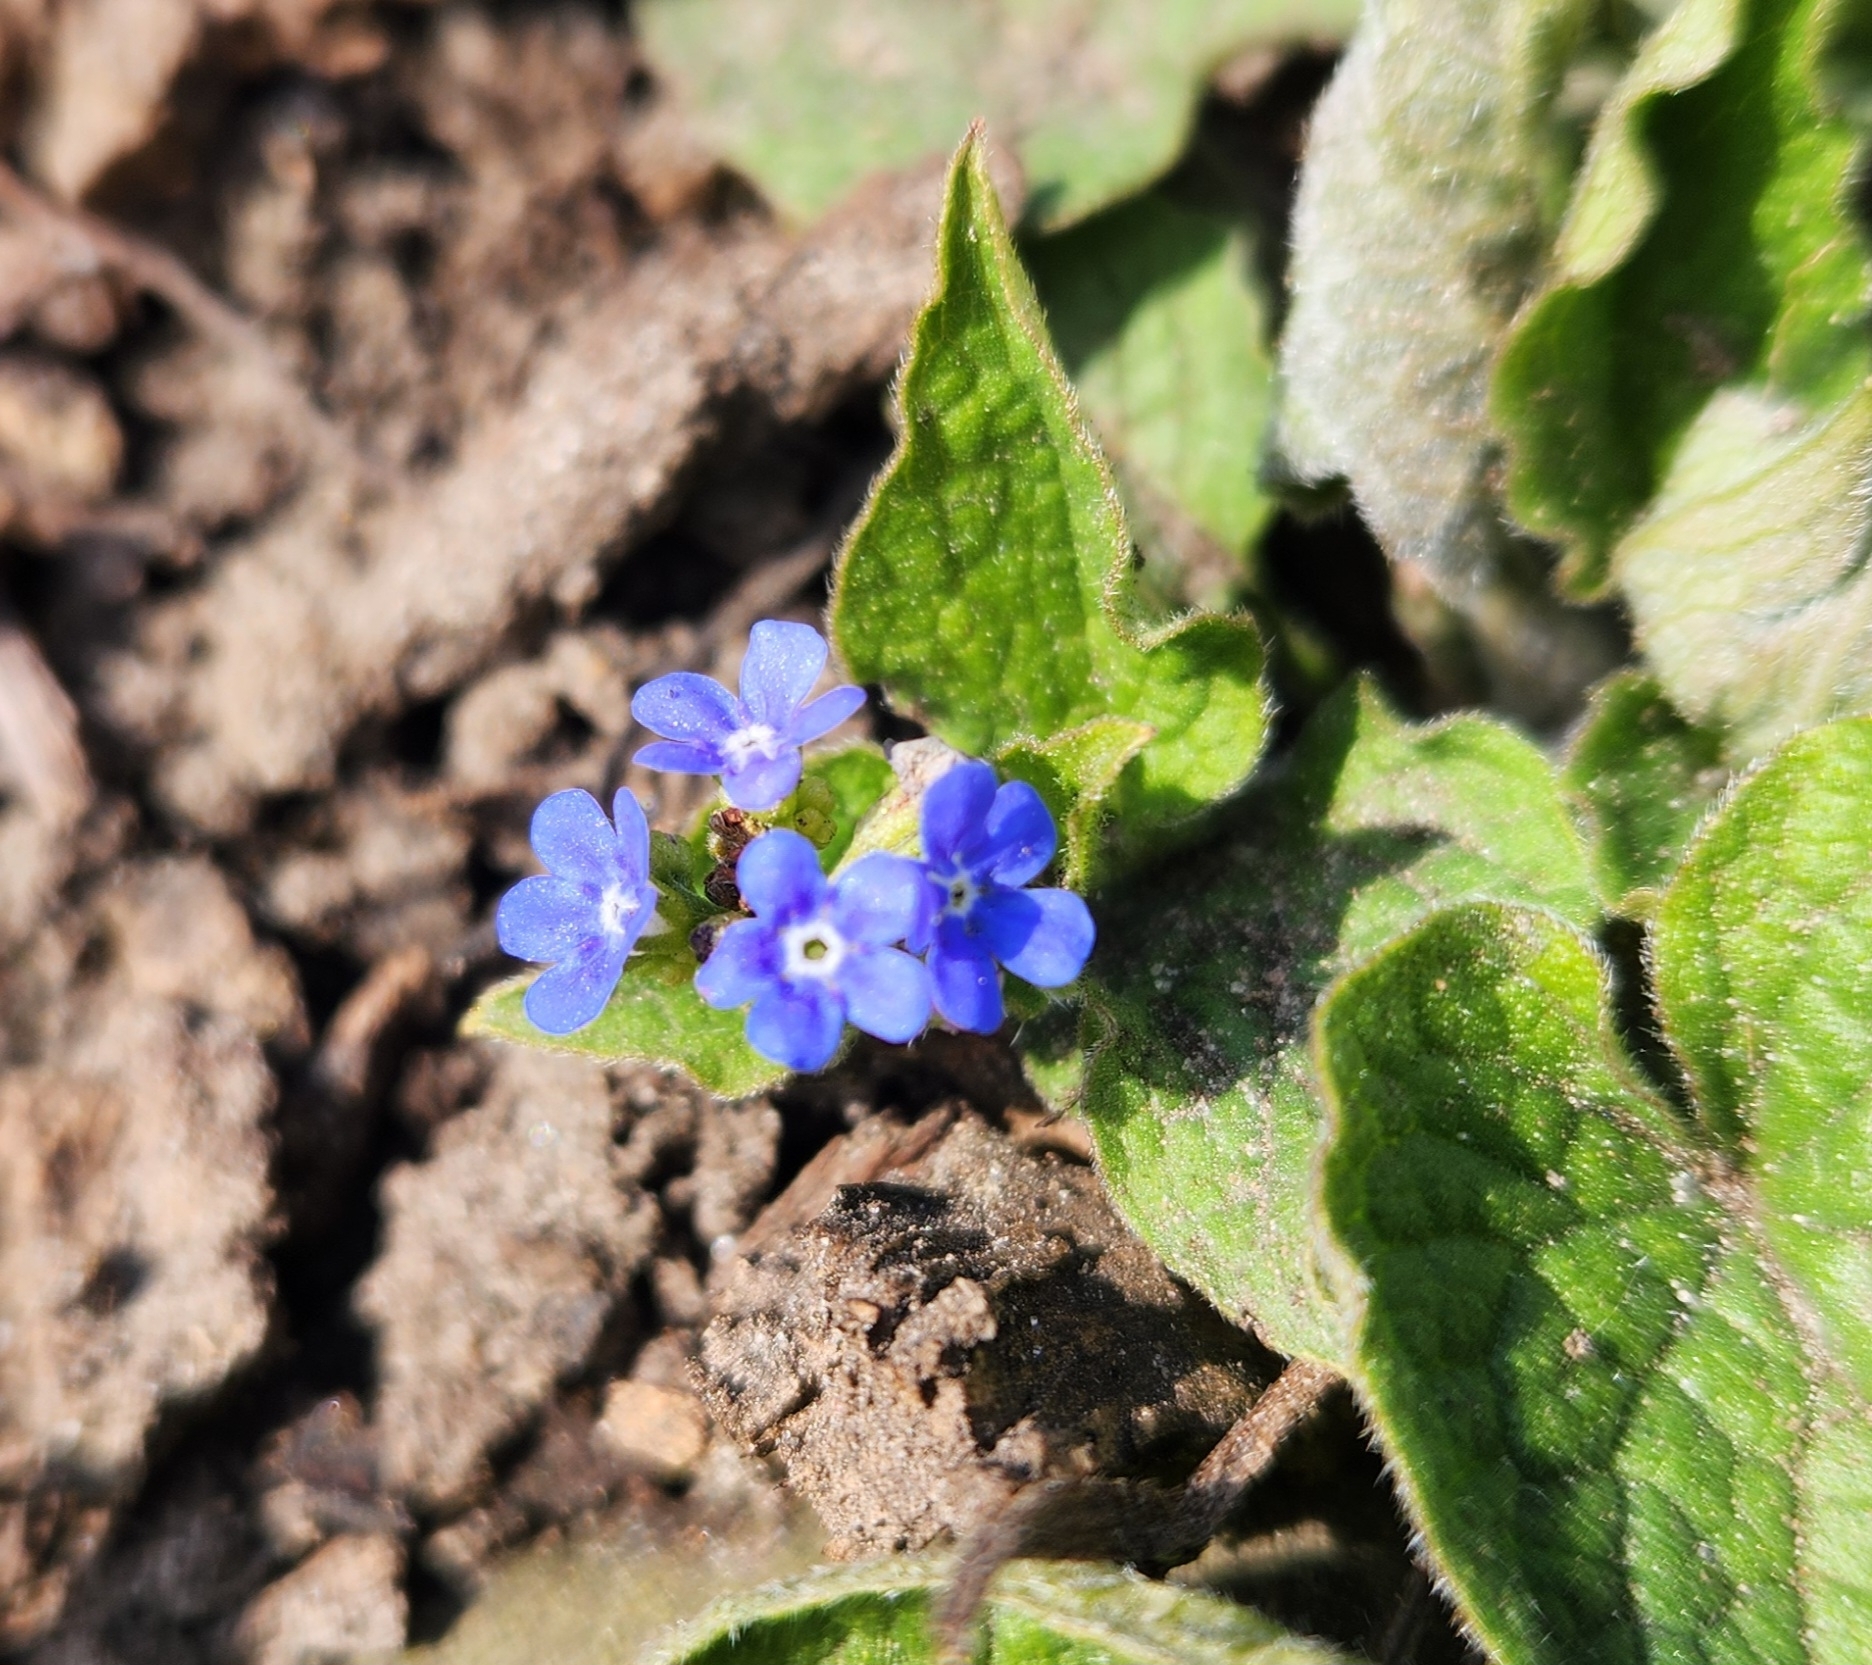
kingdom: Plantae
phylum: Tracheophyta
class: Magnoliopsida
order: Boraginales
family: Boraginaceae
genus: Brunnera
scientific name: Brunnera macrophylla
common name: Great forget-me-not
